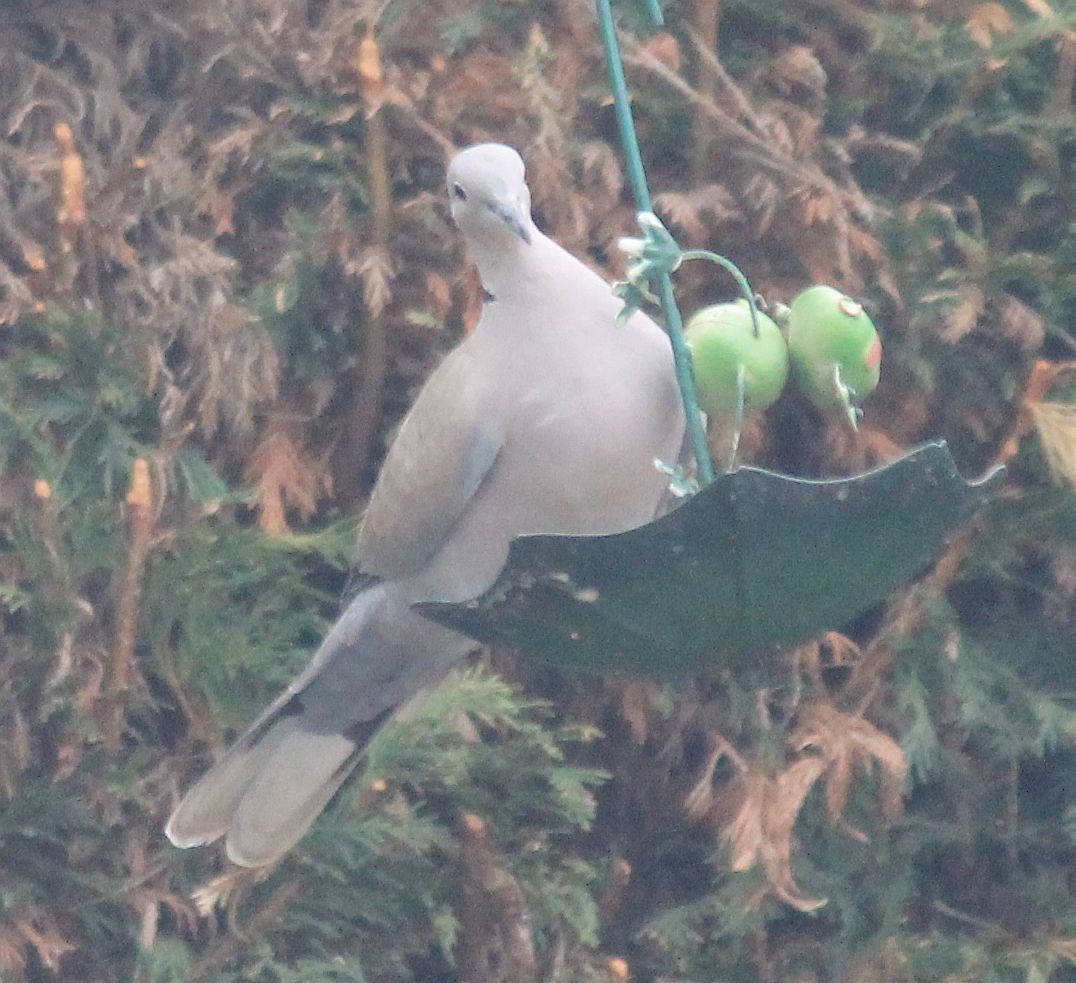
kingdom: Animalia
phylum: Chordata
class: Aves
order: Columbiformes
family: Columbidae
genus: Streptopelia
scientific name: Streptopelia decaocto
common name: Eurasian collared dove
